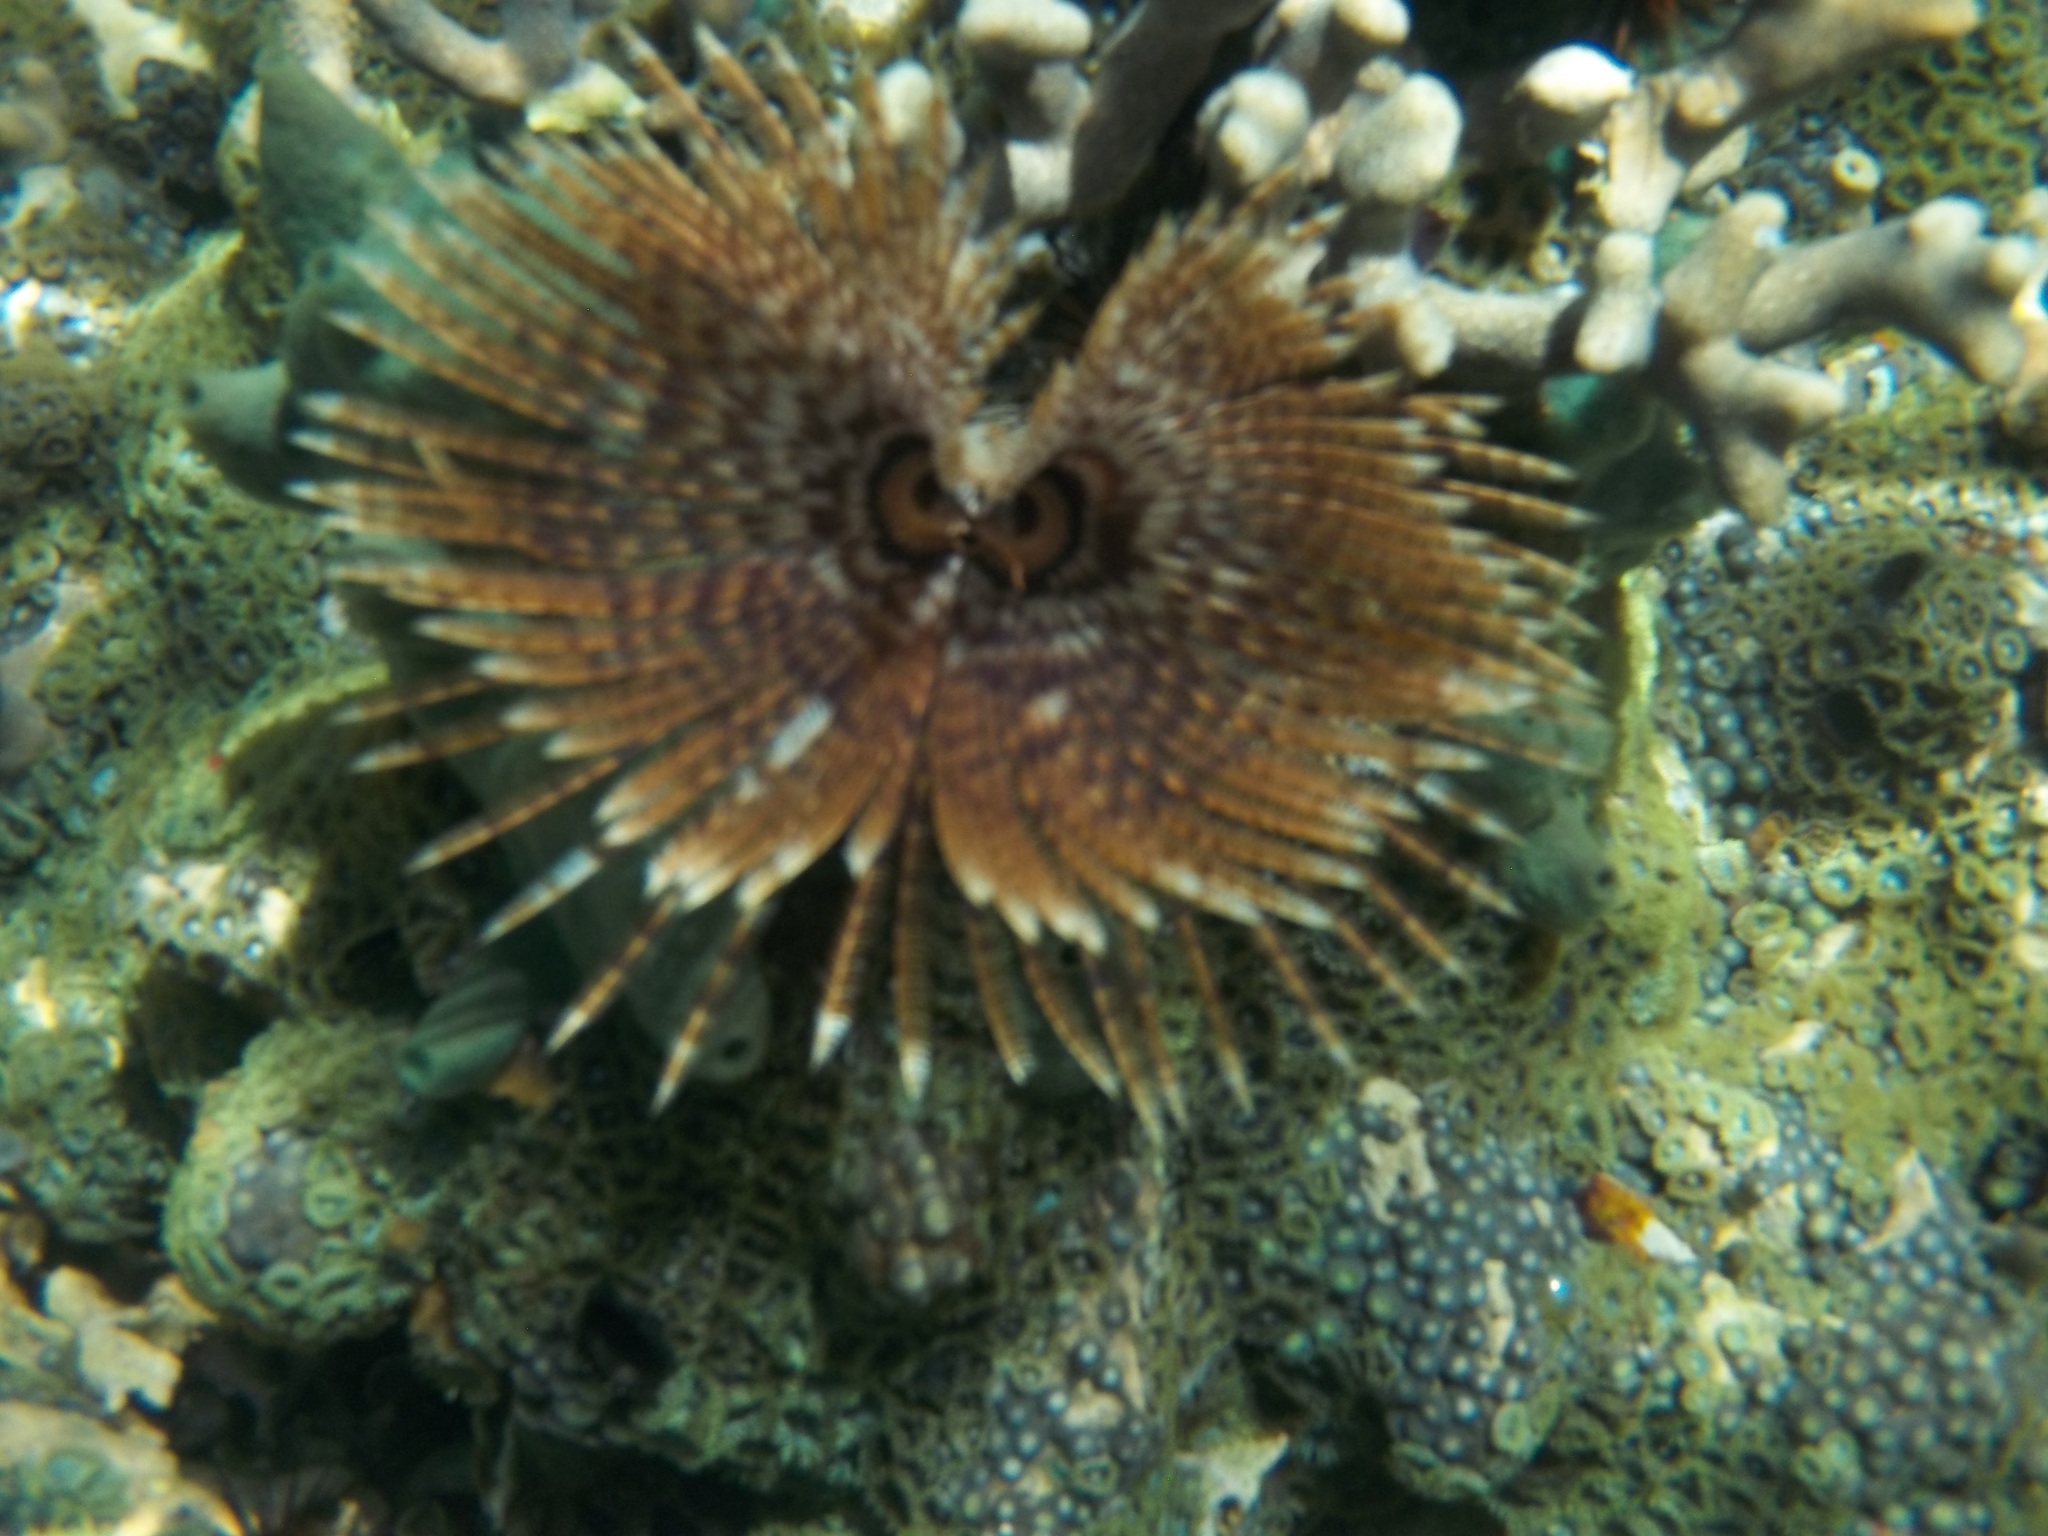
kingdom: Animalia
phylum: Annelida
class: Polychaeta
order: Sabellida
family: Sabellidae
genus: Sabellastarte
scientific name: Sabellastarte magnifica
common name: Giant feather-duster worm
